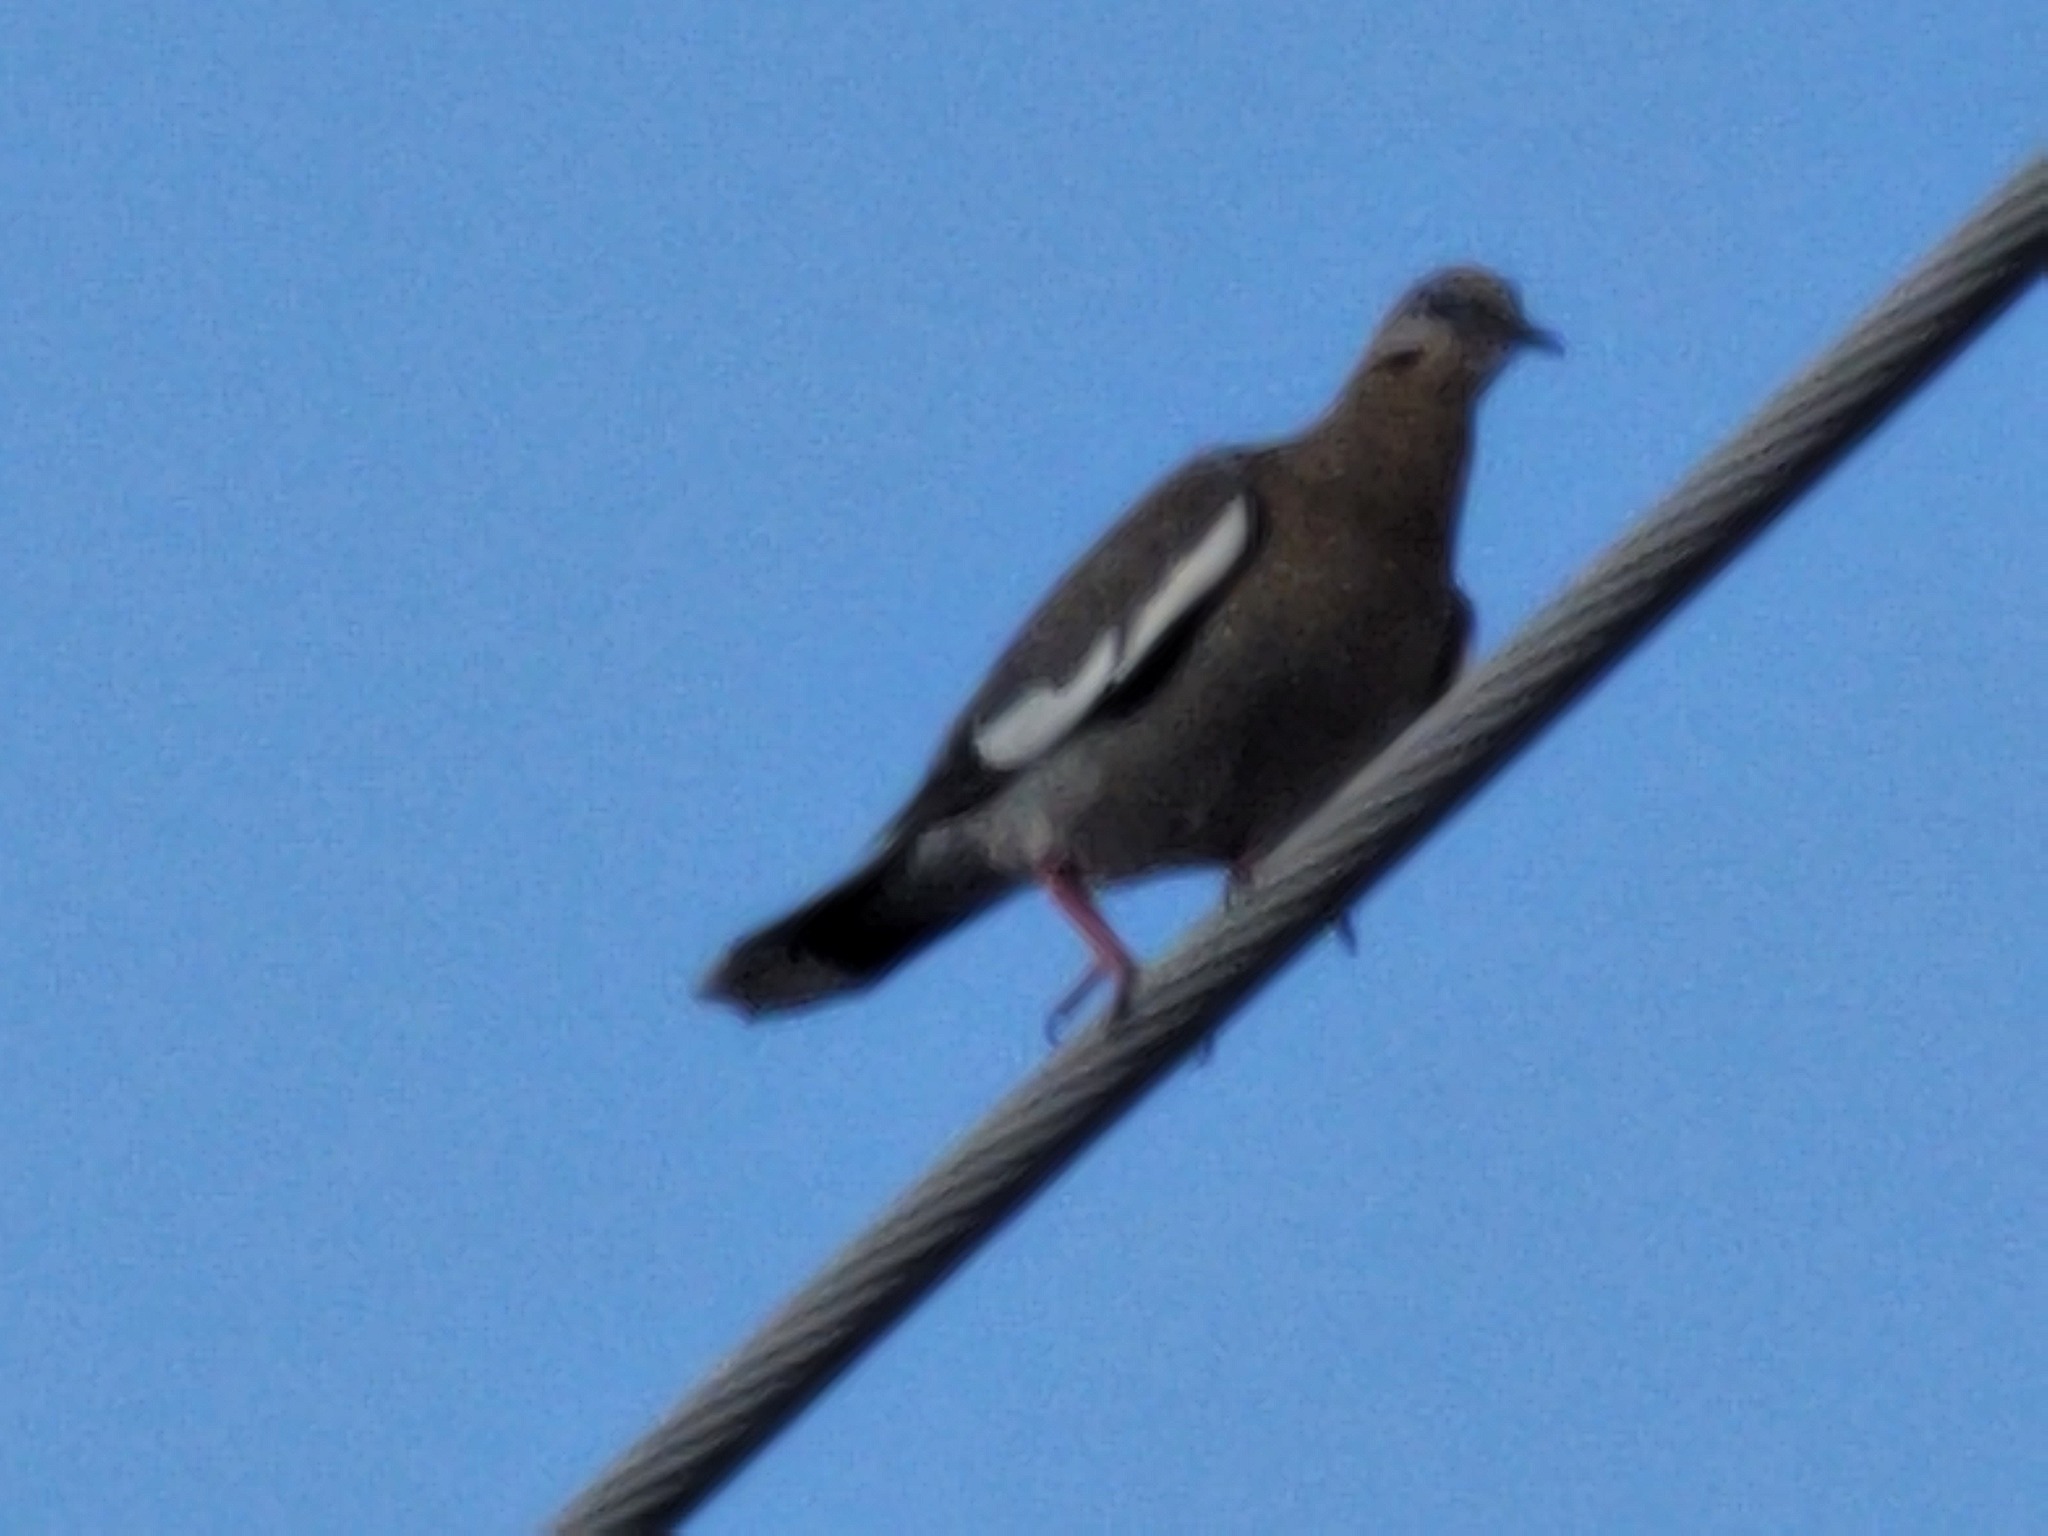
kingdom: Animalia
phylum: Chordata
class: Aves
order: Columbiformes
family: Columbidae
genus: Zenaida
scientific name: Zenaida asiatica
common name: White-winged dove
